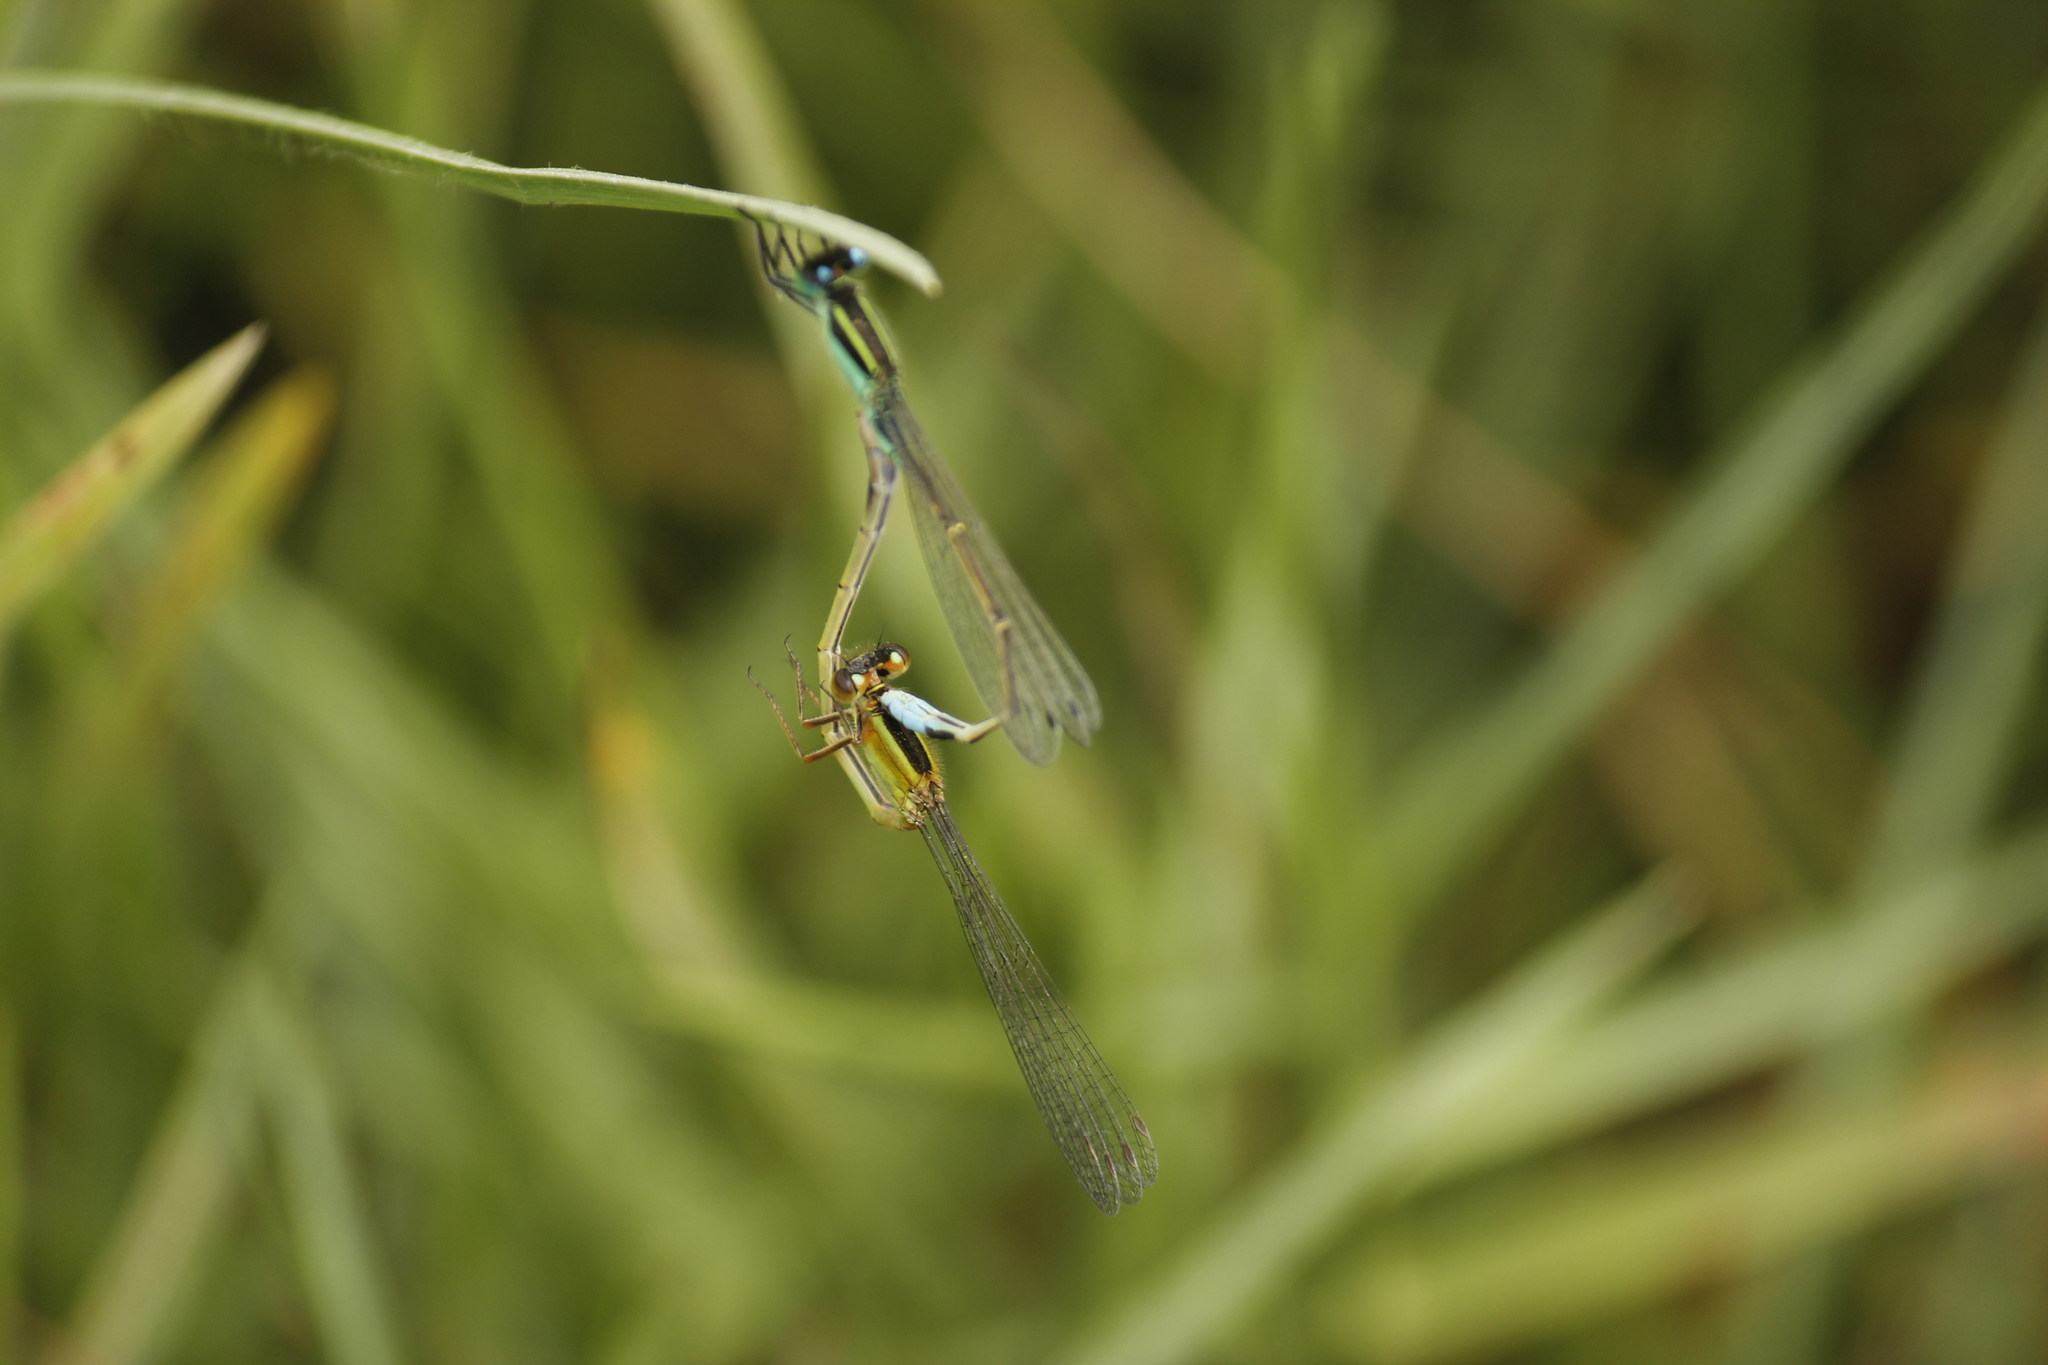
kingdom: Animalia
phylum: Arthropoda
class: Insecta
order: Odonata
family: Coenagrionidae
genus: Ischnura
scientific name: Ischnura ramburii
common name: Rambur's forktail
